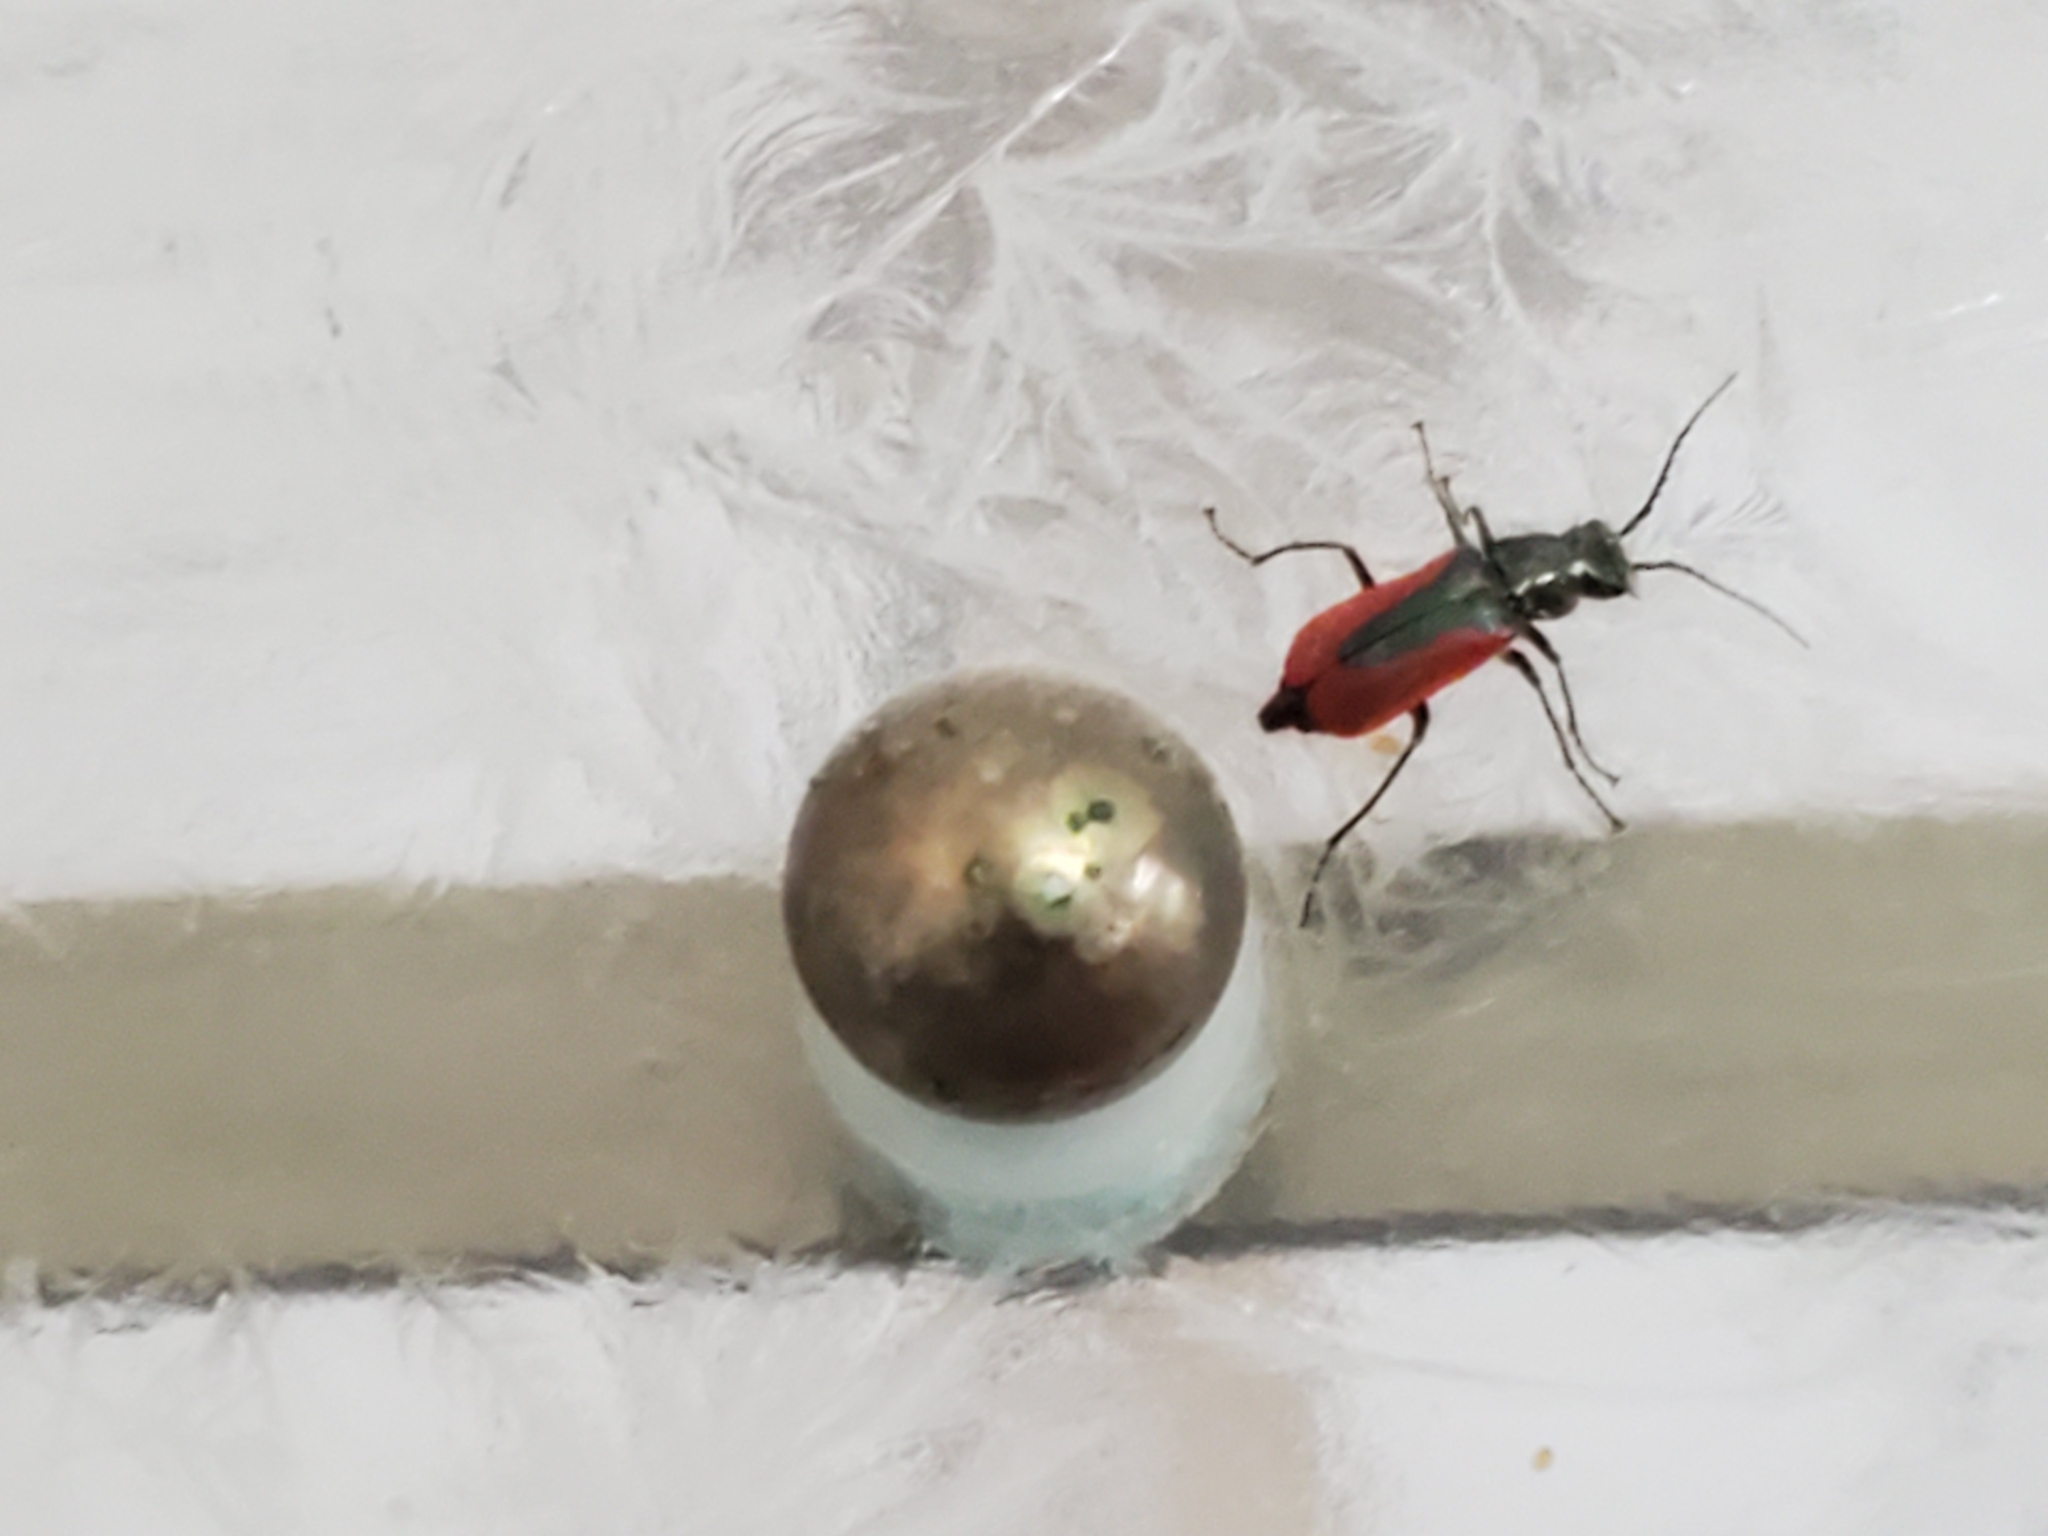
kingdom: Animalia
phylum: Arthropoda
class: Insecta
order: Coleoptera
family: Melyridae
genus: Malachius
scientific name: Malachius aeneus
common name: Scarlet malachite beetle
